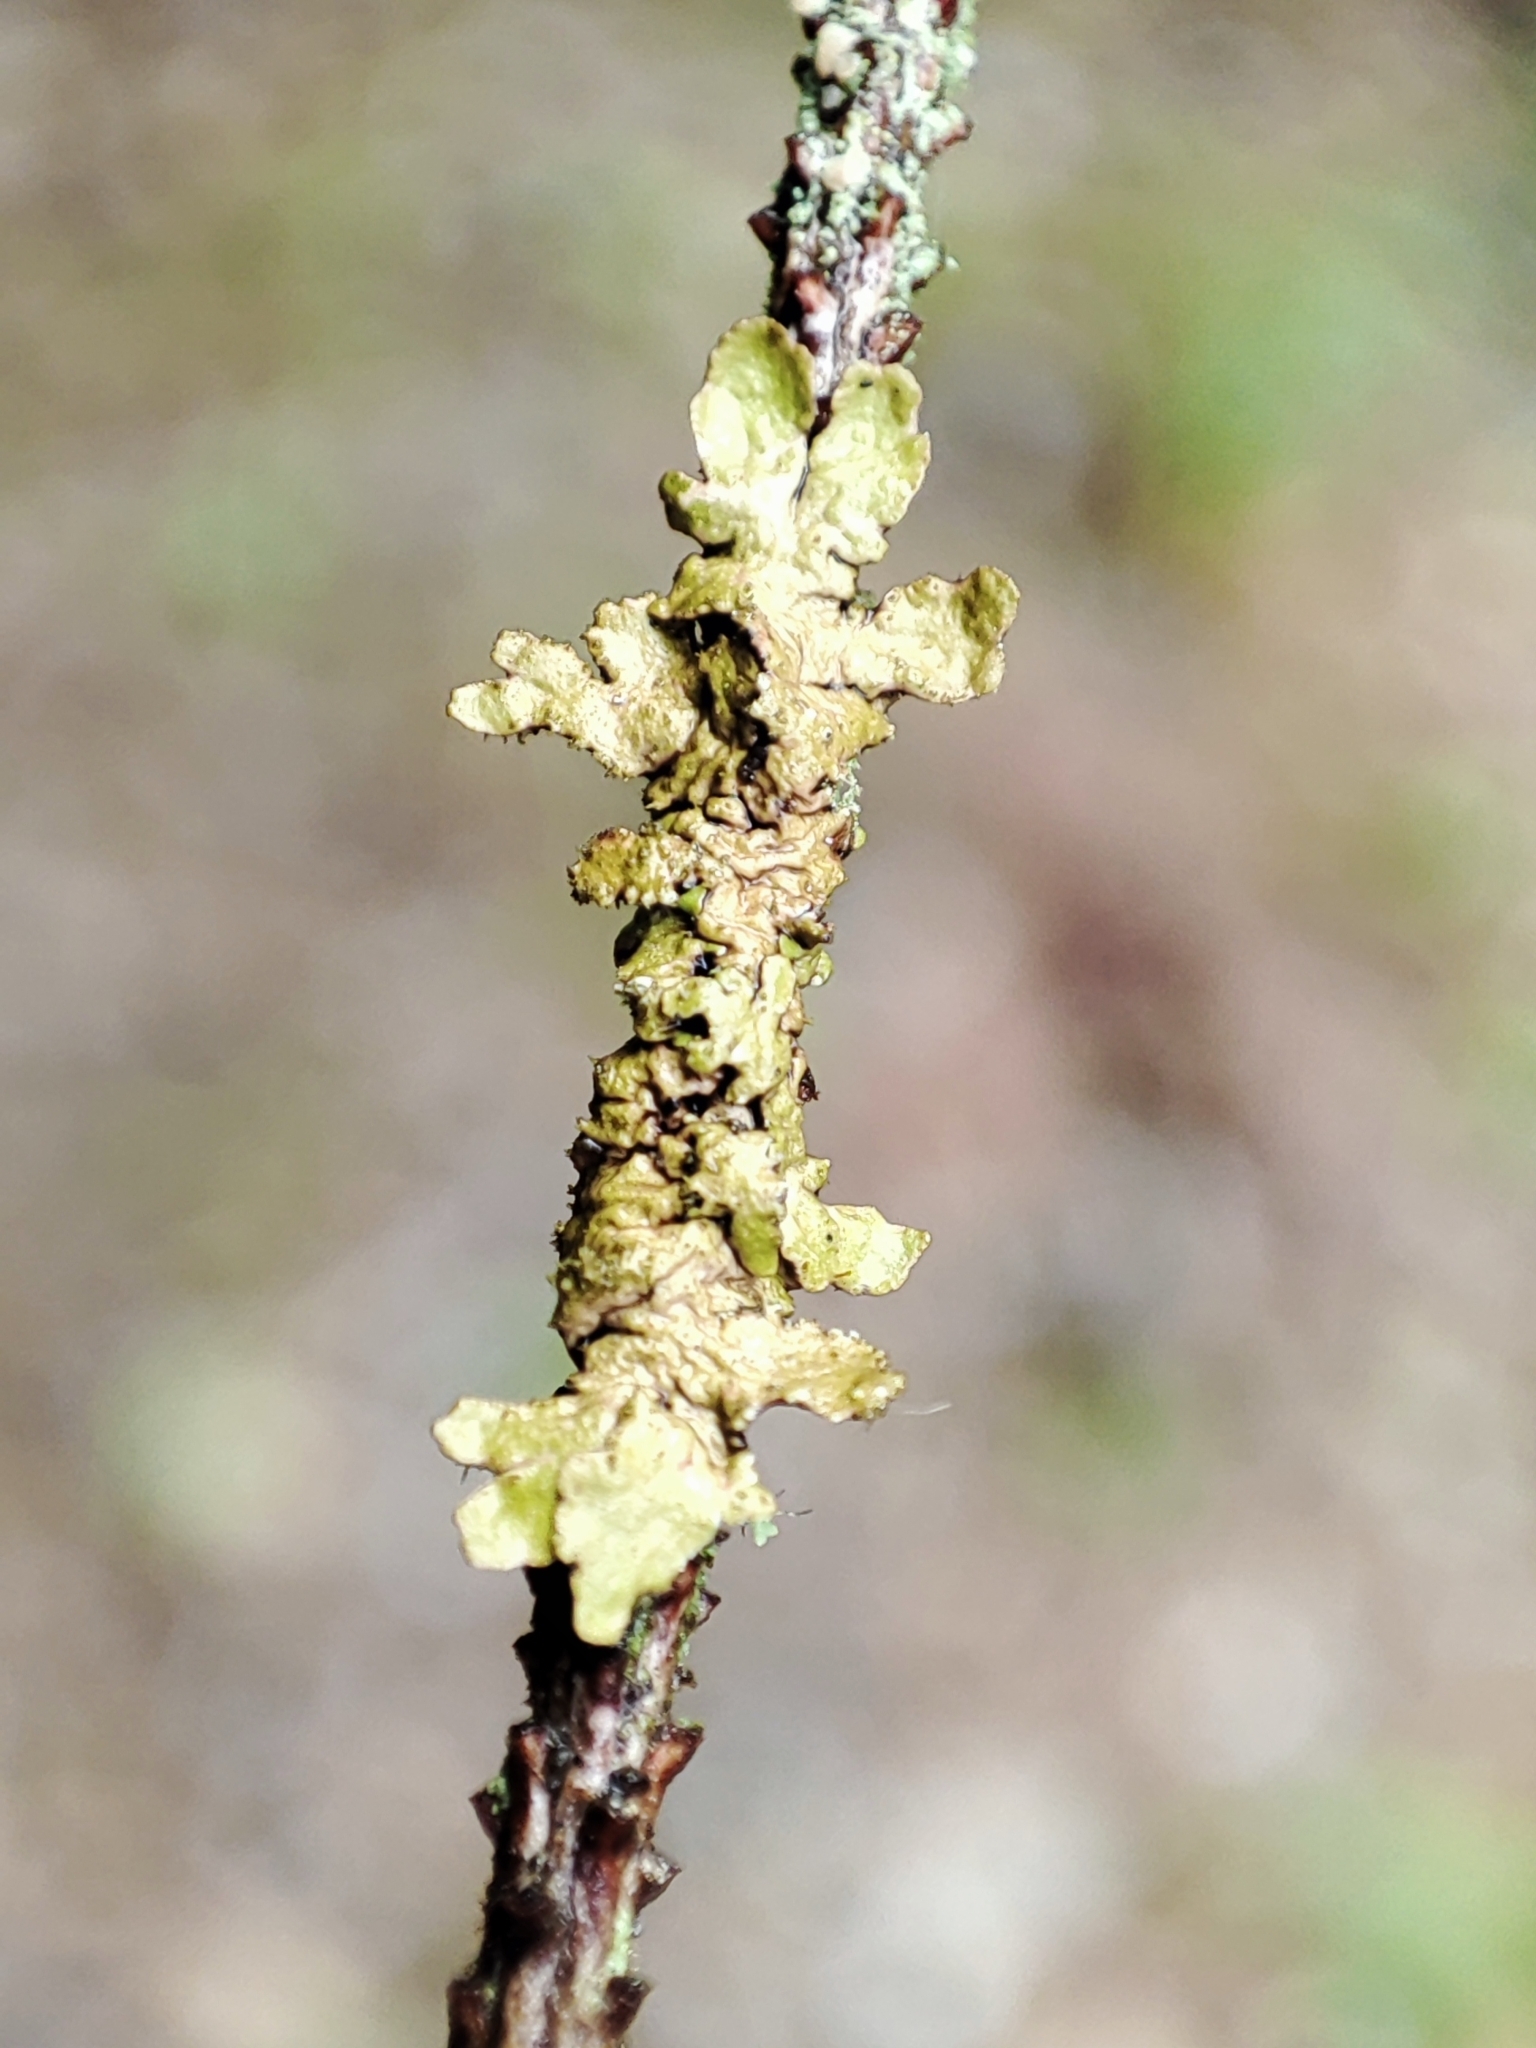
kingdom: Fungi
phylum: Ascomycota
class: Lecanoromycetes
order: Lecanorales
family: Parmeliaceae
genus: Melanelixia
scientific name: Melanelixia glabratula
